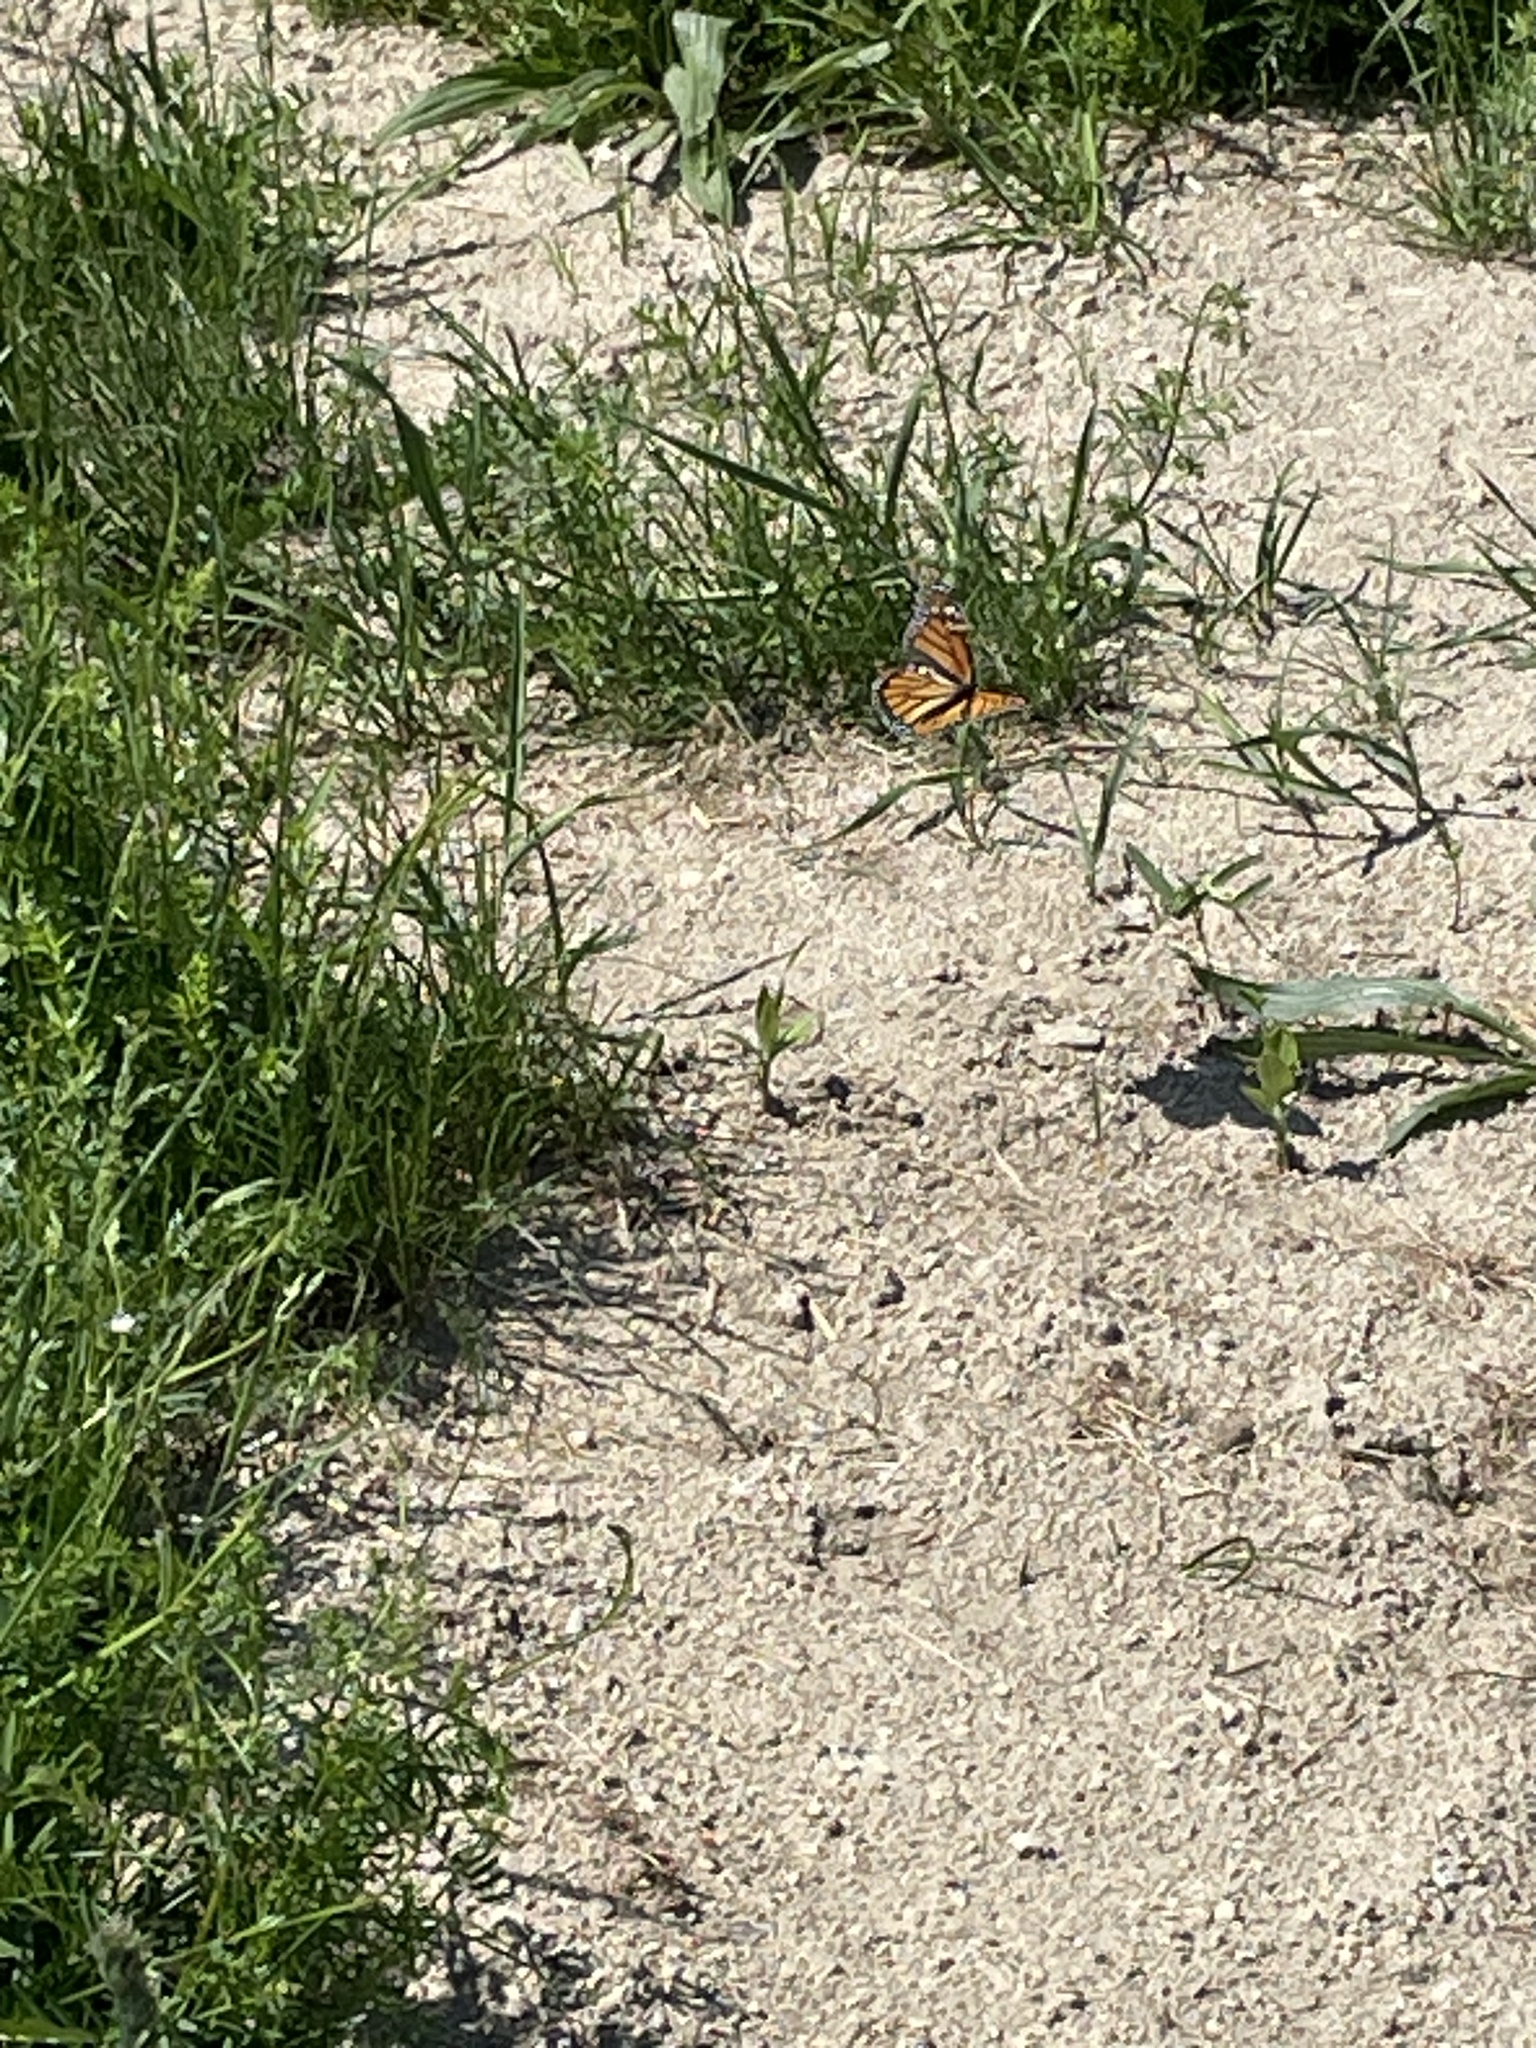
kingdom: Animalia
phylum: Arthropoda
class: Insecta
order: Lepidoptera
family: Nymphalidae
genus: Danaus
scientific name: Danaus plexippus
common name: Monarch
